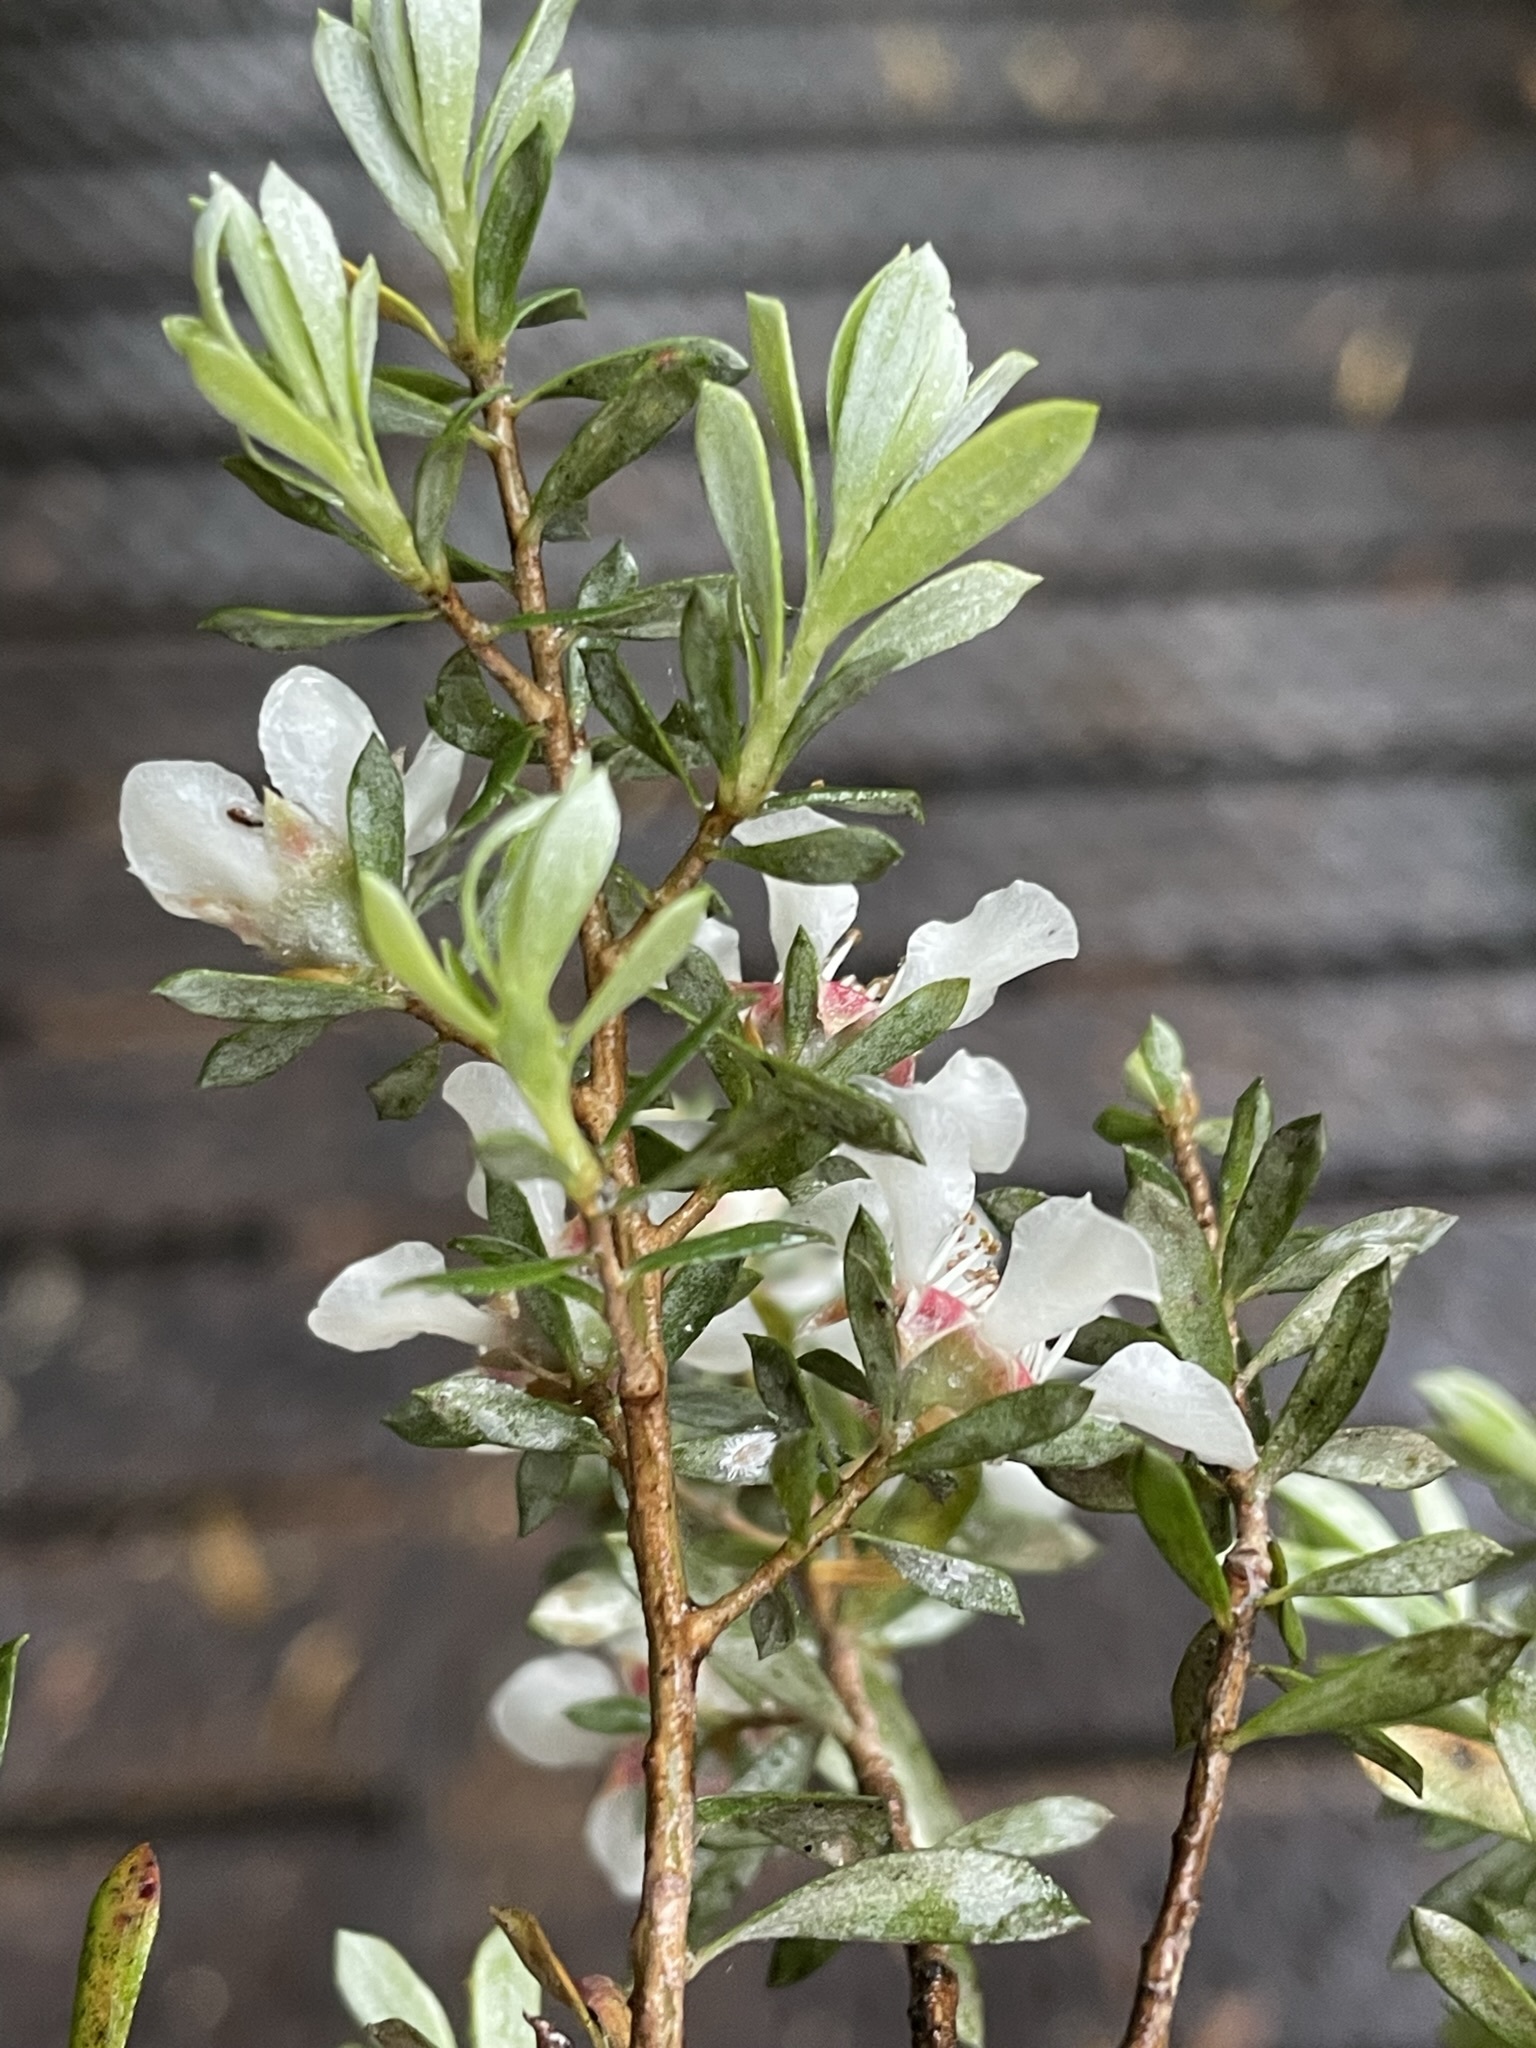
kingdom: Plantae
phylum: Tracheophyta
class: Magnoliopsida
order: Myrtales
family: Myrtaceae
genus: Leptospermum
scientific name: Leptospermum lanigerum
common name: Woolly tea-tree
